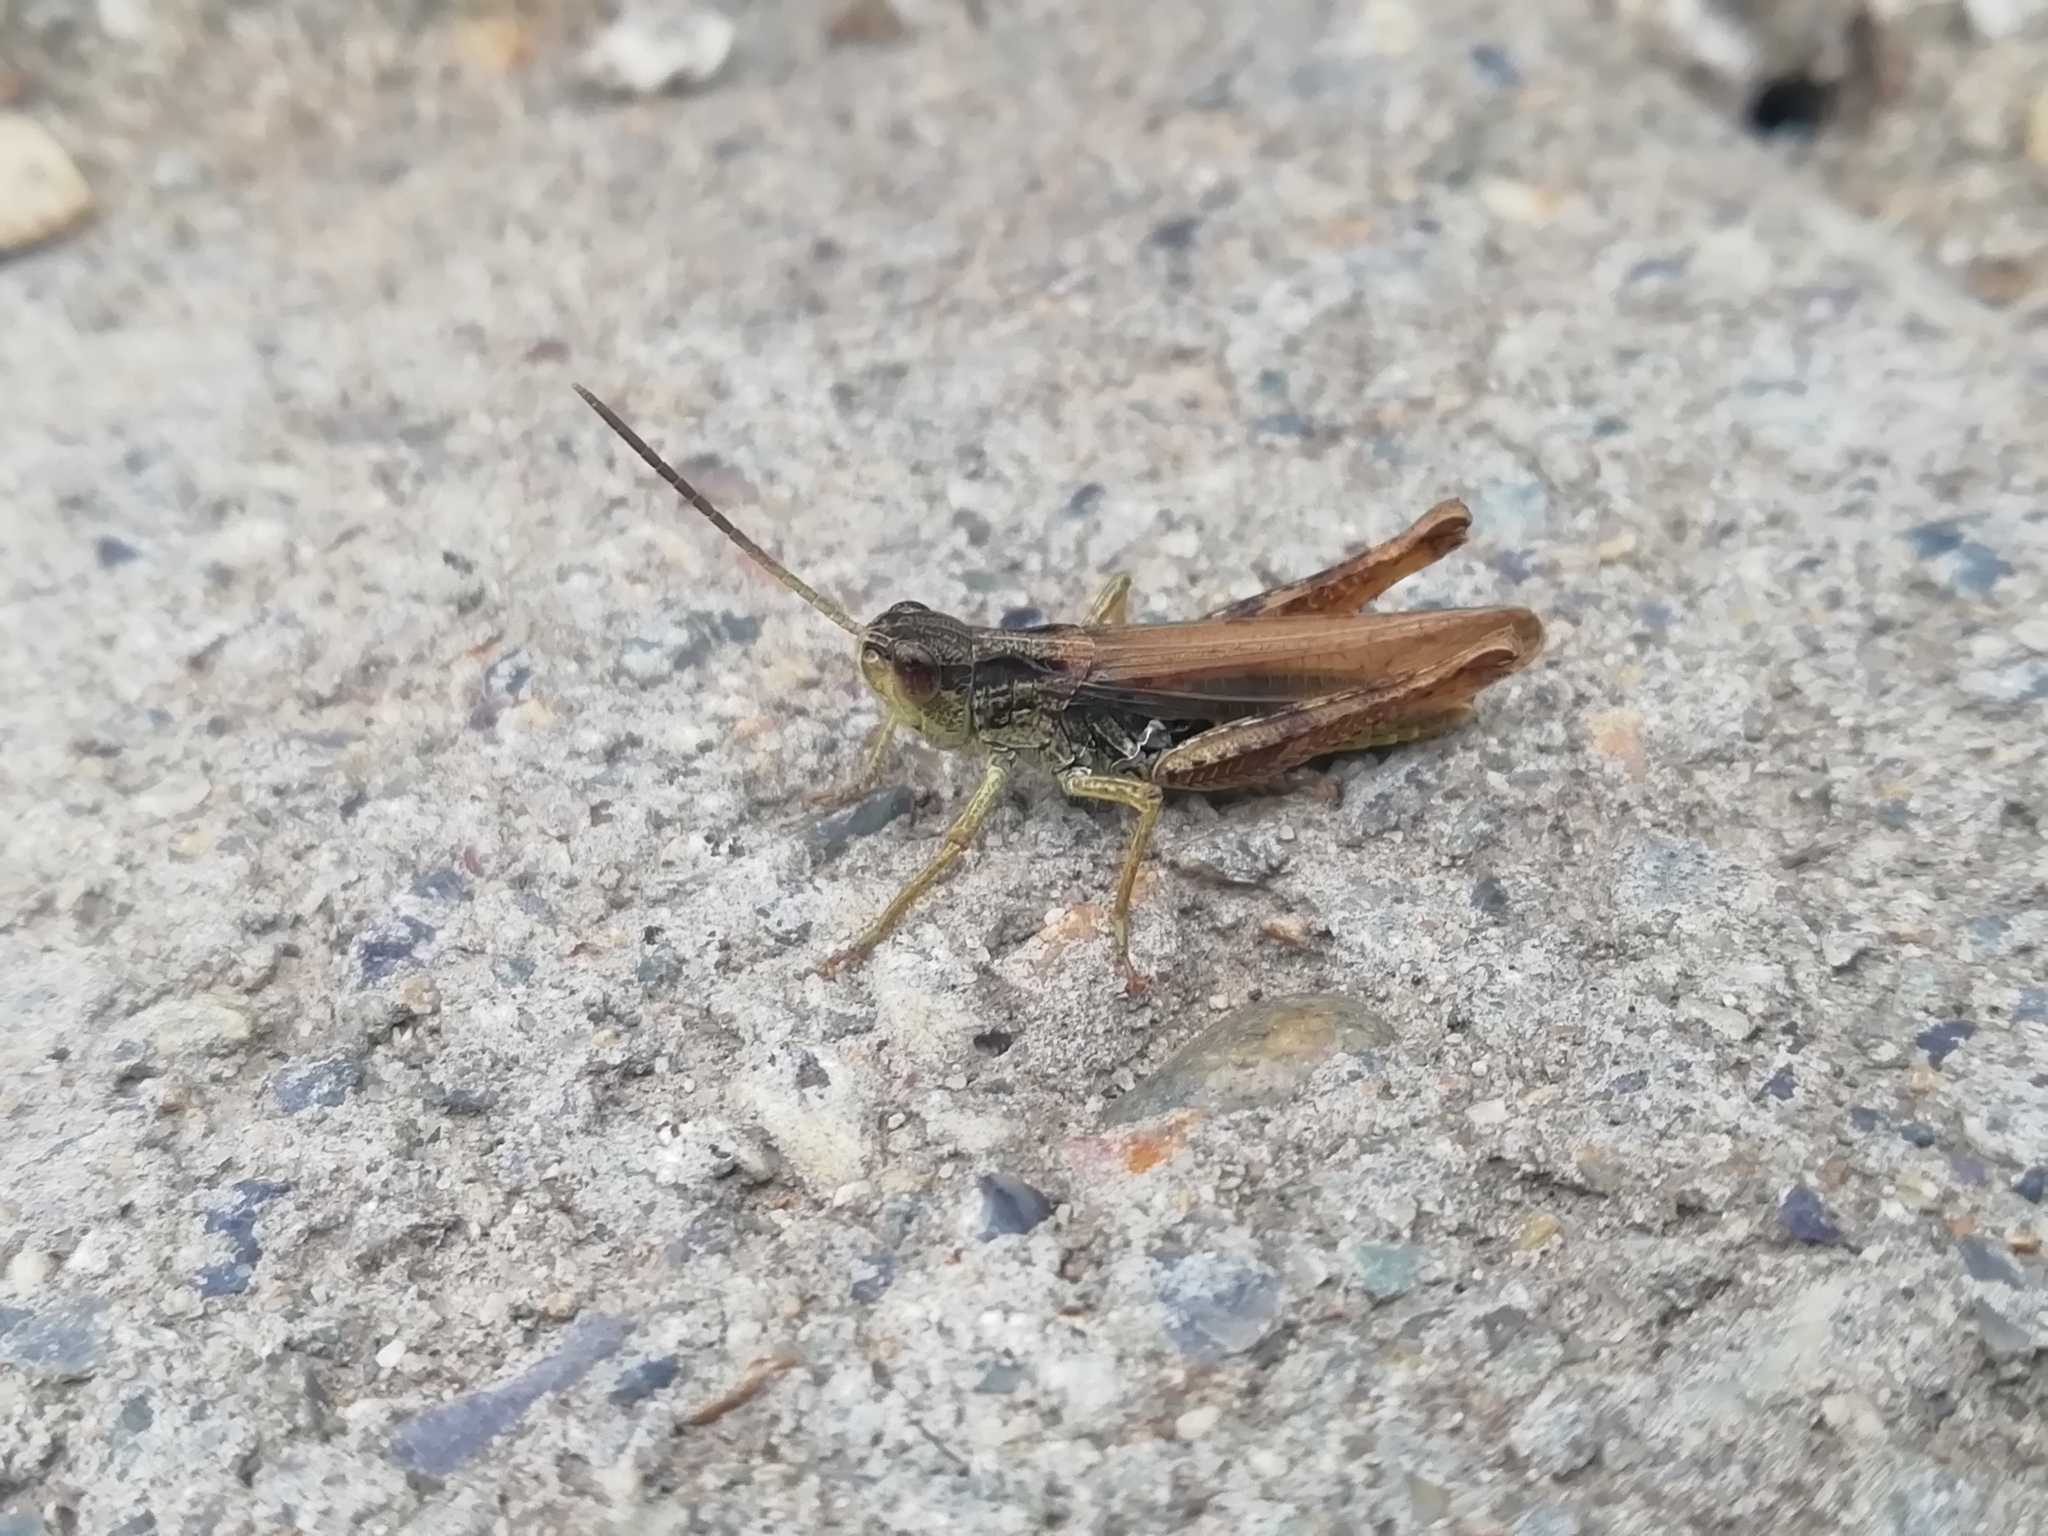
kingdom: Animalia
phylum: Arthropoda
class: Insecta
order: Orthoptera
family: Acrididae
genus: Chorthippus
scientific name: Chorthippus apricarius
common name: Upland field grasshopper
